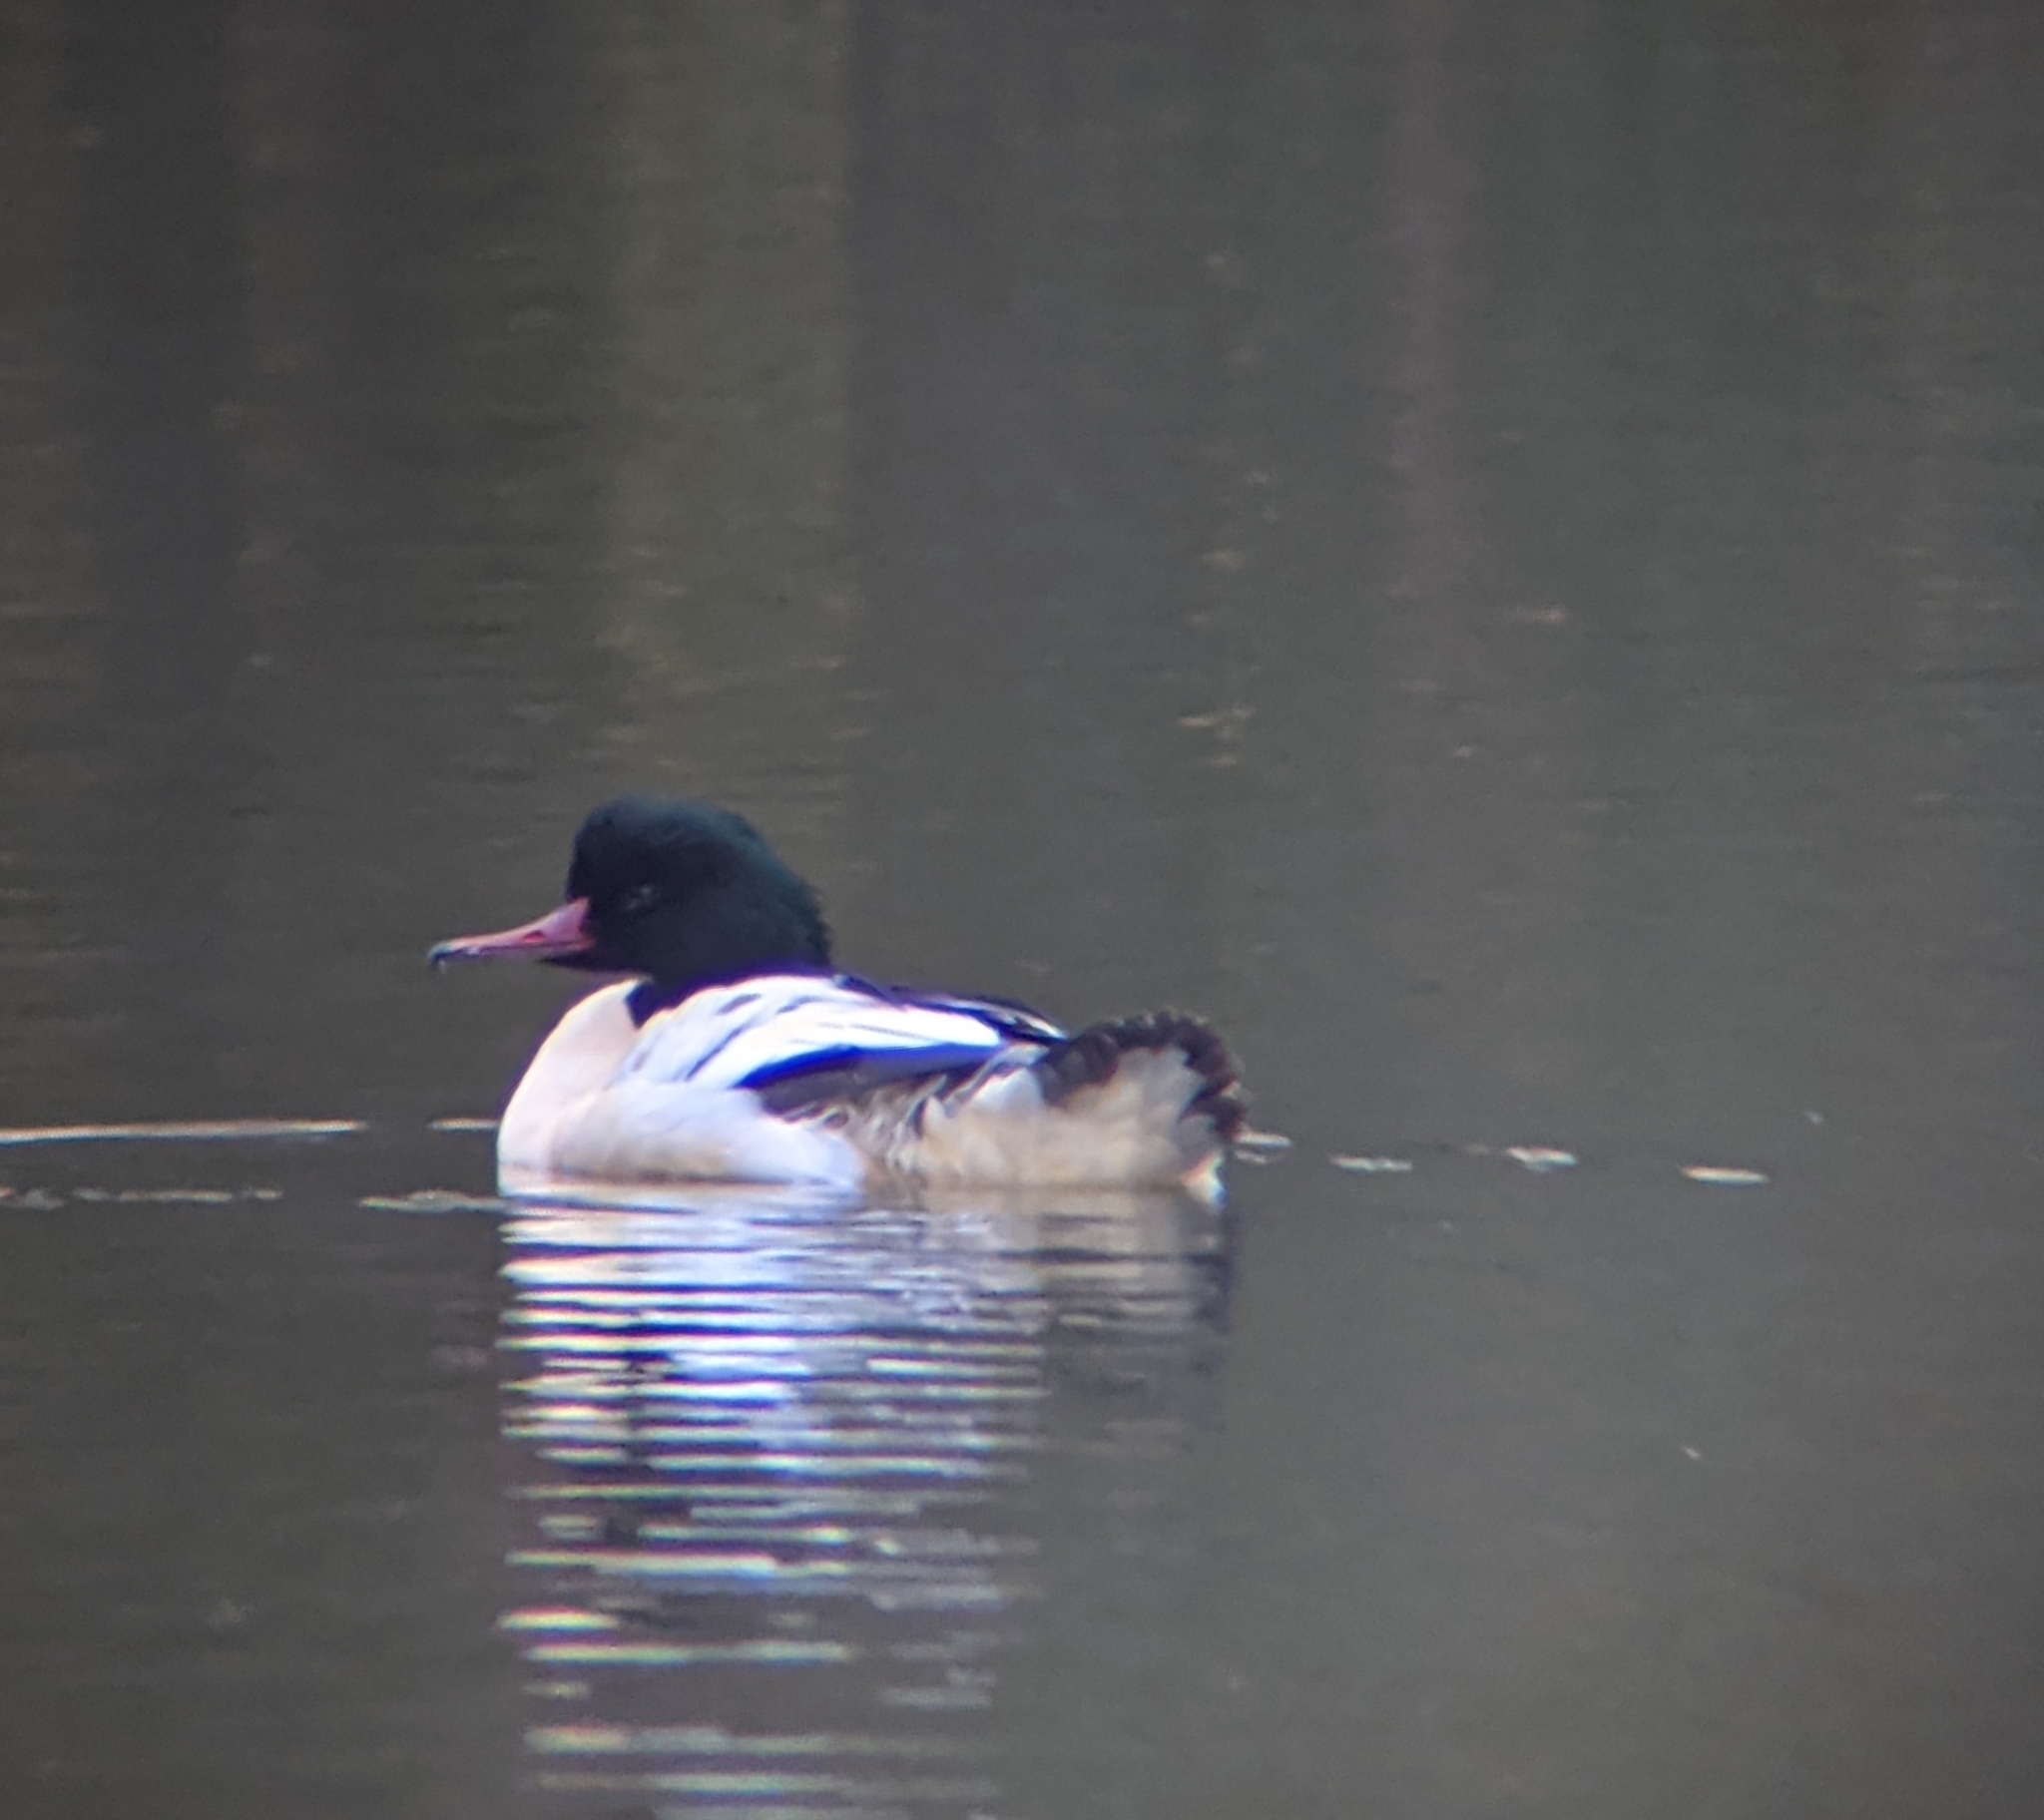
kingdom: Animalia
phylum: Chordata
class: Aves
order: Anseriformes
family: Anatidae
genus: Mergus
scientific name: Mergus merganser
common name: Common merganser
